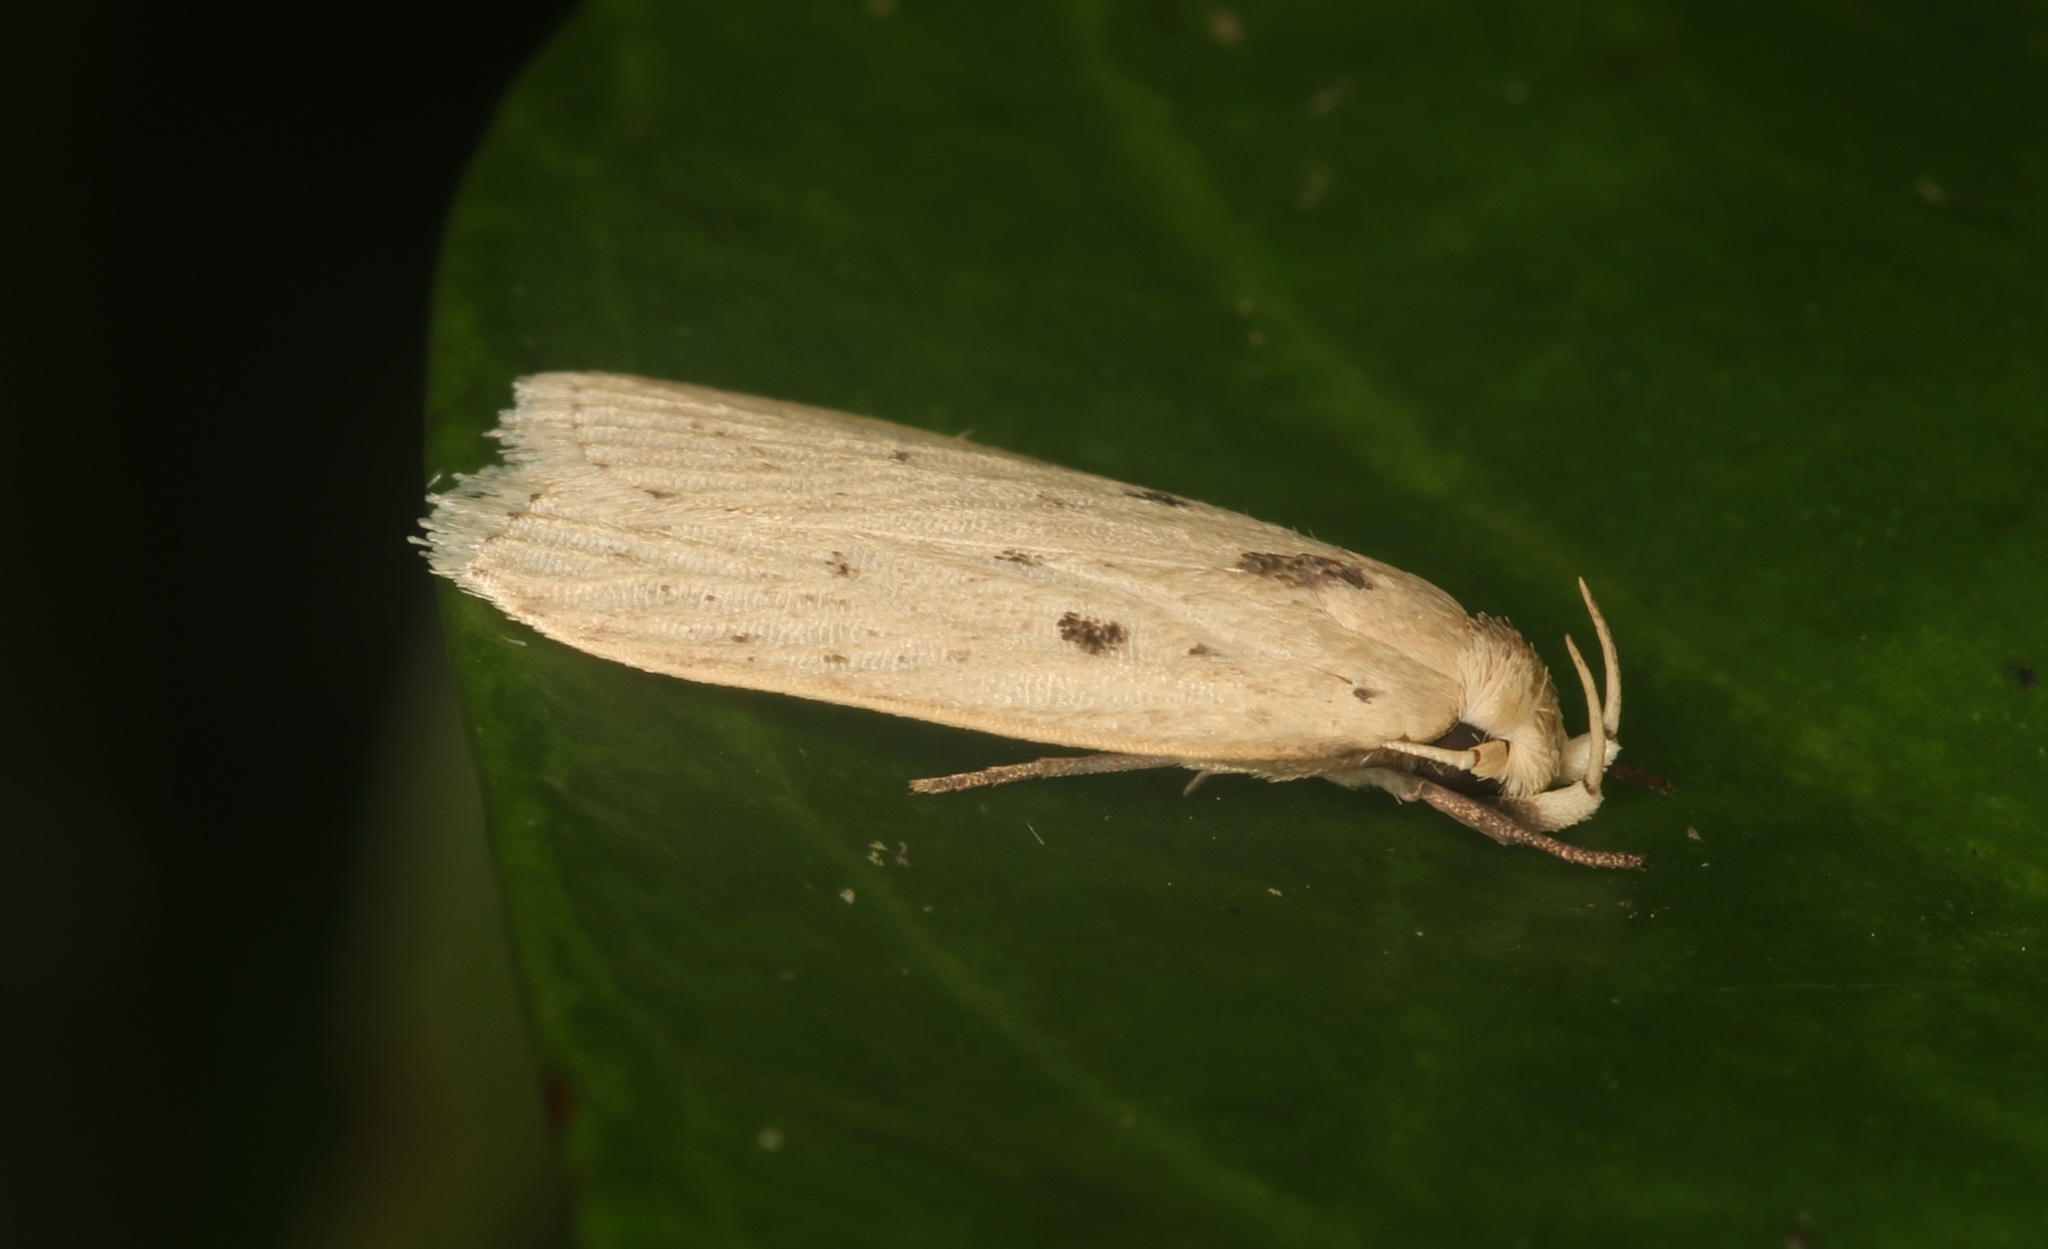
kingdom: Animalia
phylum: Arthropoda
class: Insecta
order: Lepidoptera
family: Peleopodidae
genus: Odites
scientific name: Odites ricinella
